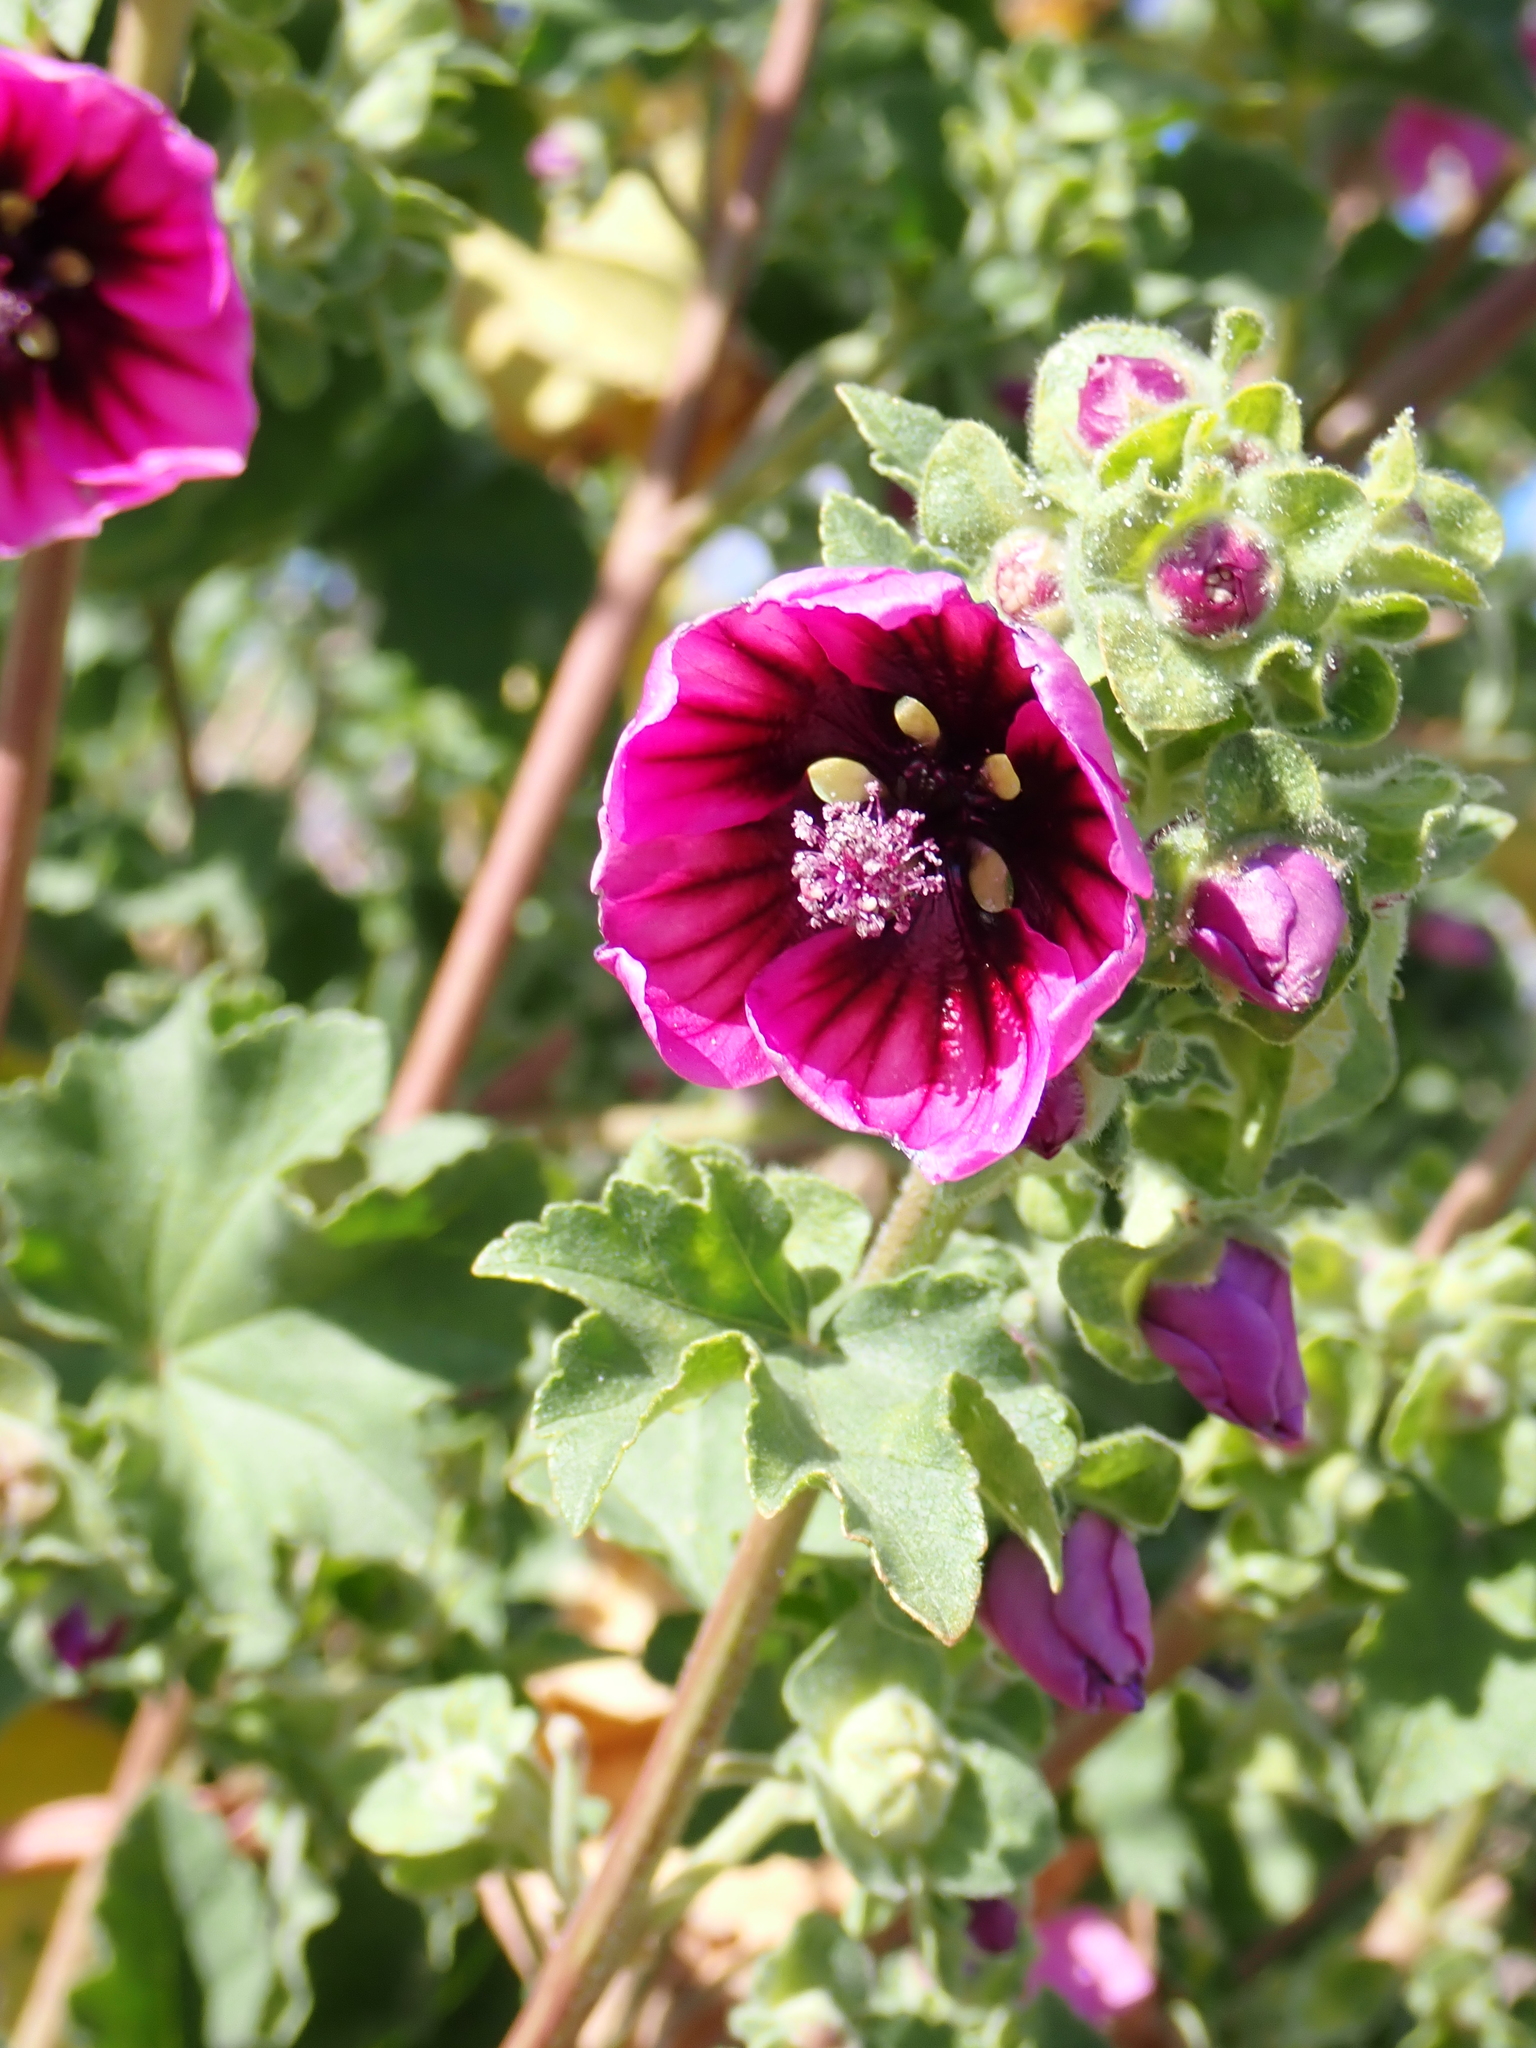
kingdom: Plantae
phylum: Tracheophyta
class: Magnoliopsida
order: Malvales
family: Malvaceae
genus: Malva
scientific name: Malva arborea
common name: Tree mallow
